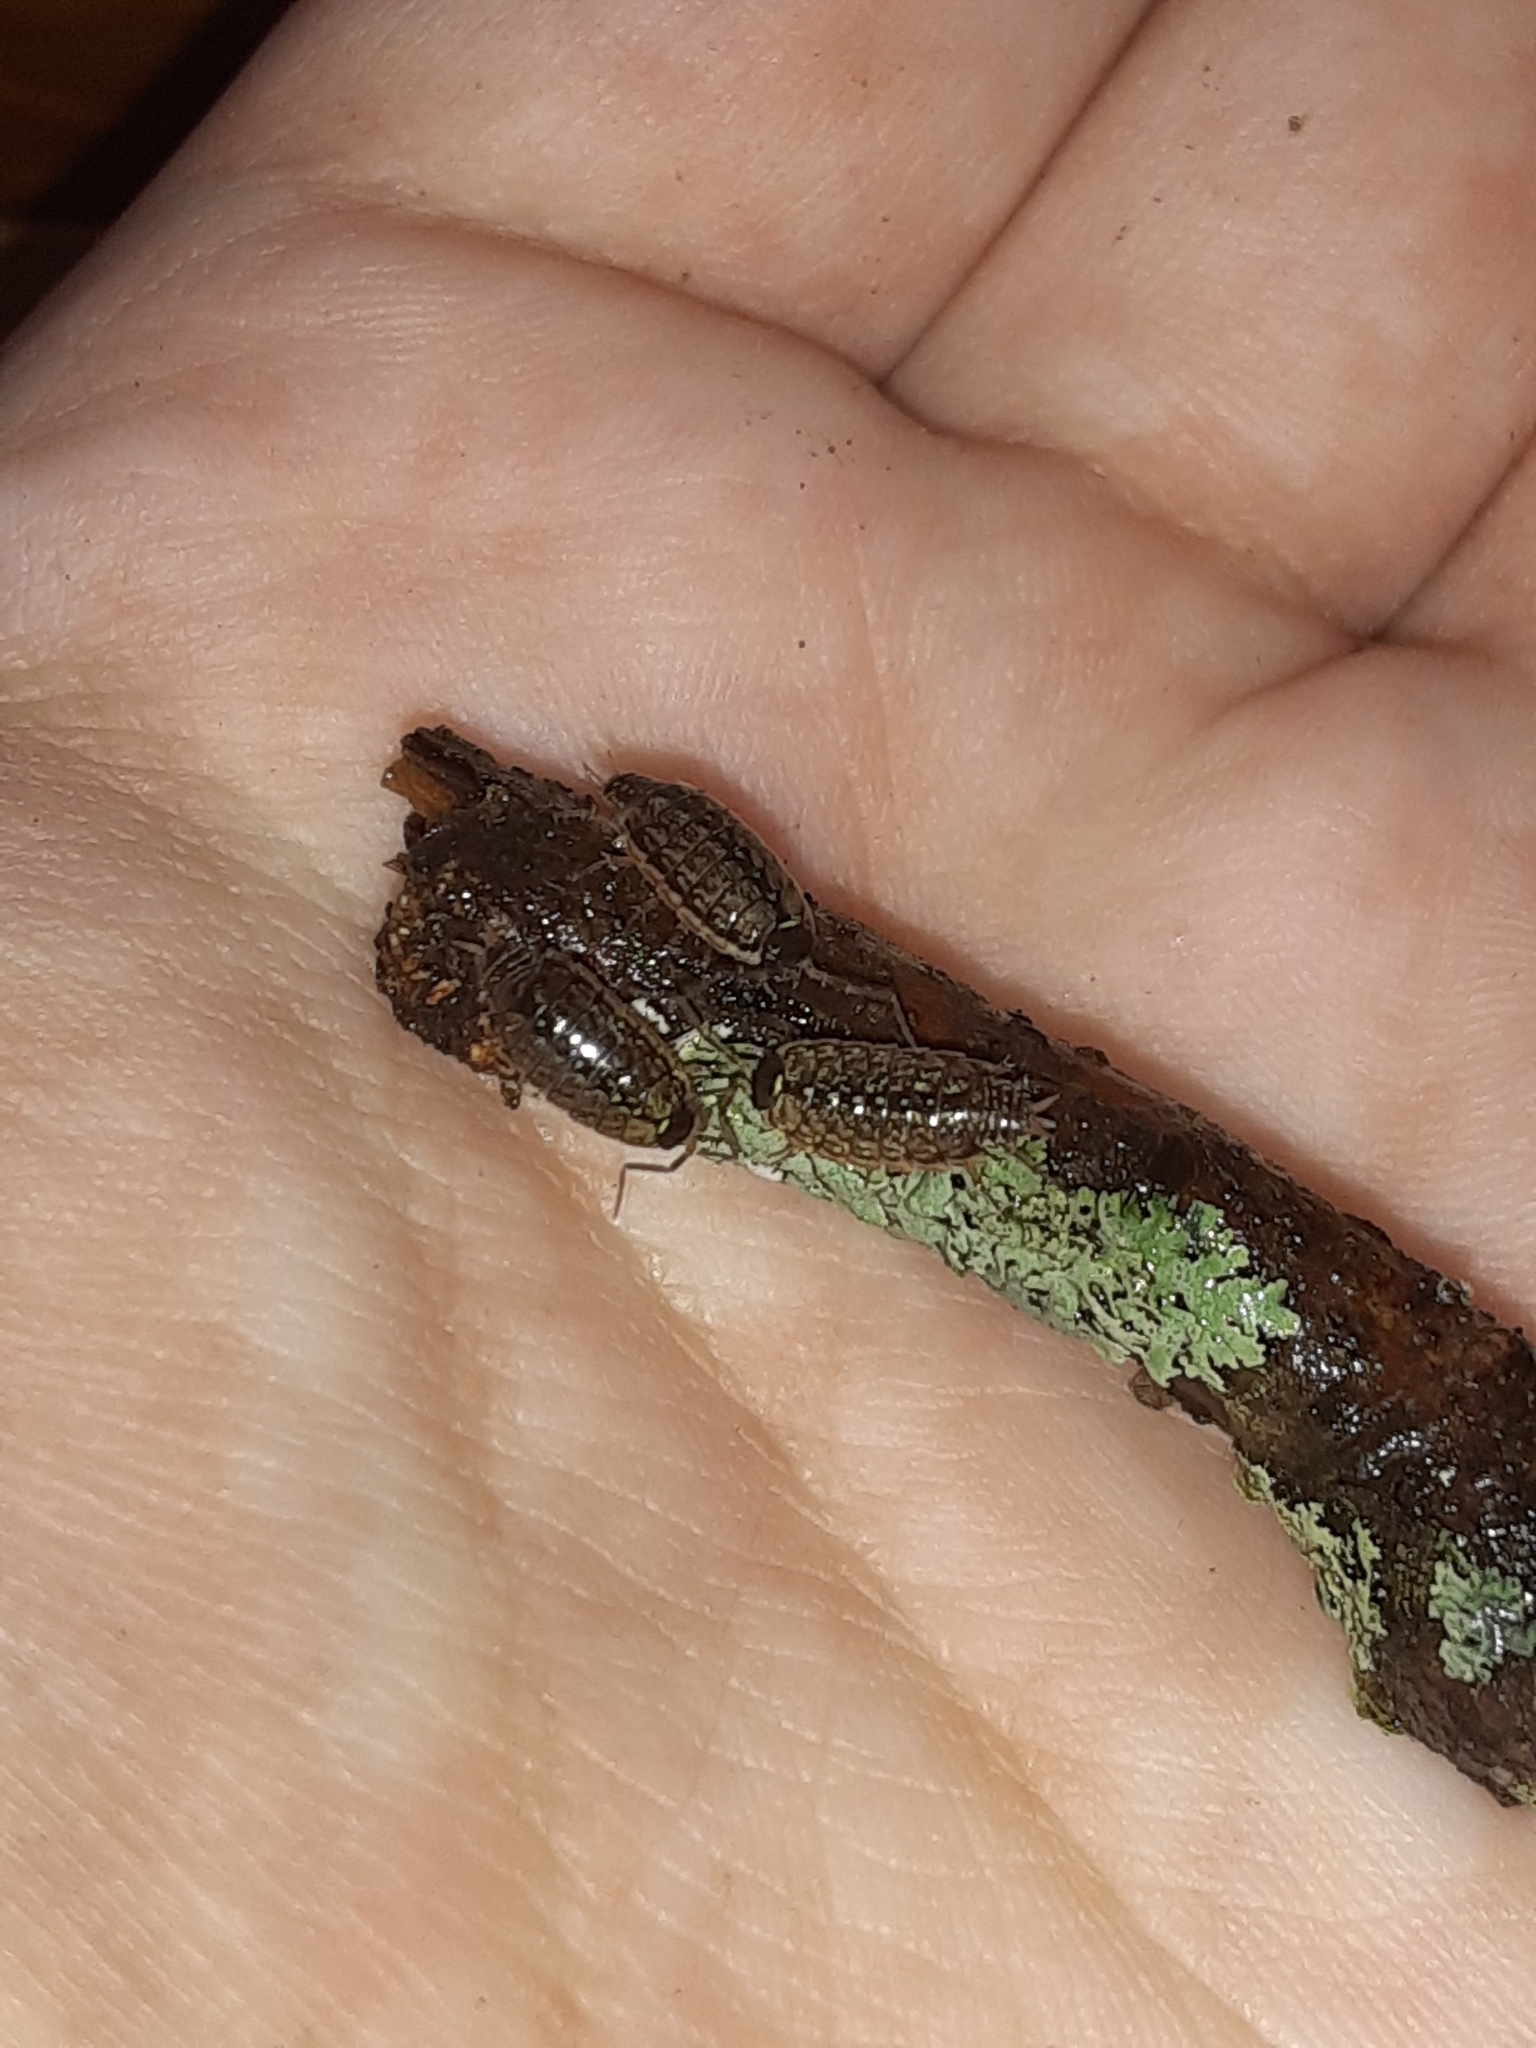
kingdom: Animalia
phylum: Arthropoda
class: Malacostraca
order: Isopoda
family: Philosciidae
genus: Philoscia
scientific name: Philoscia muscorum
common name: Common striped woodlouse
